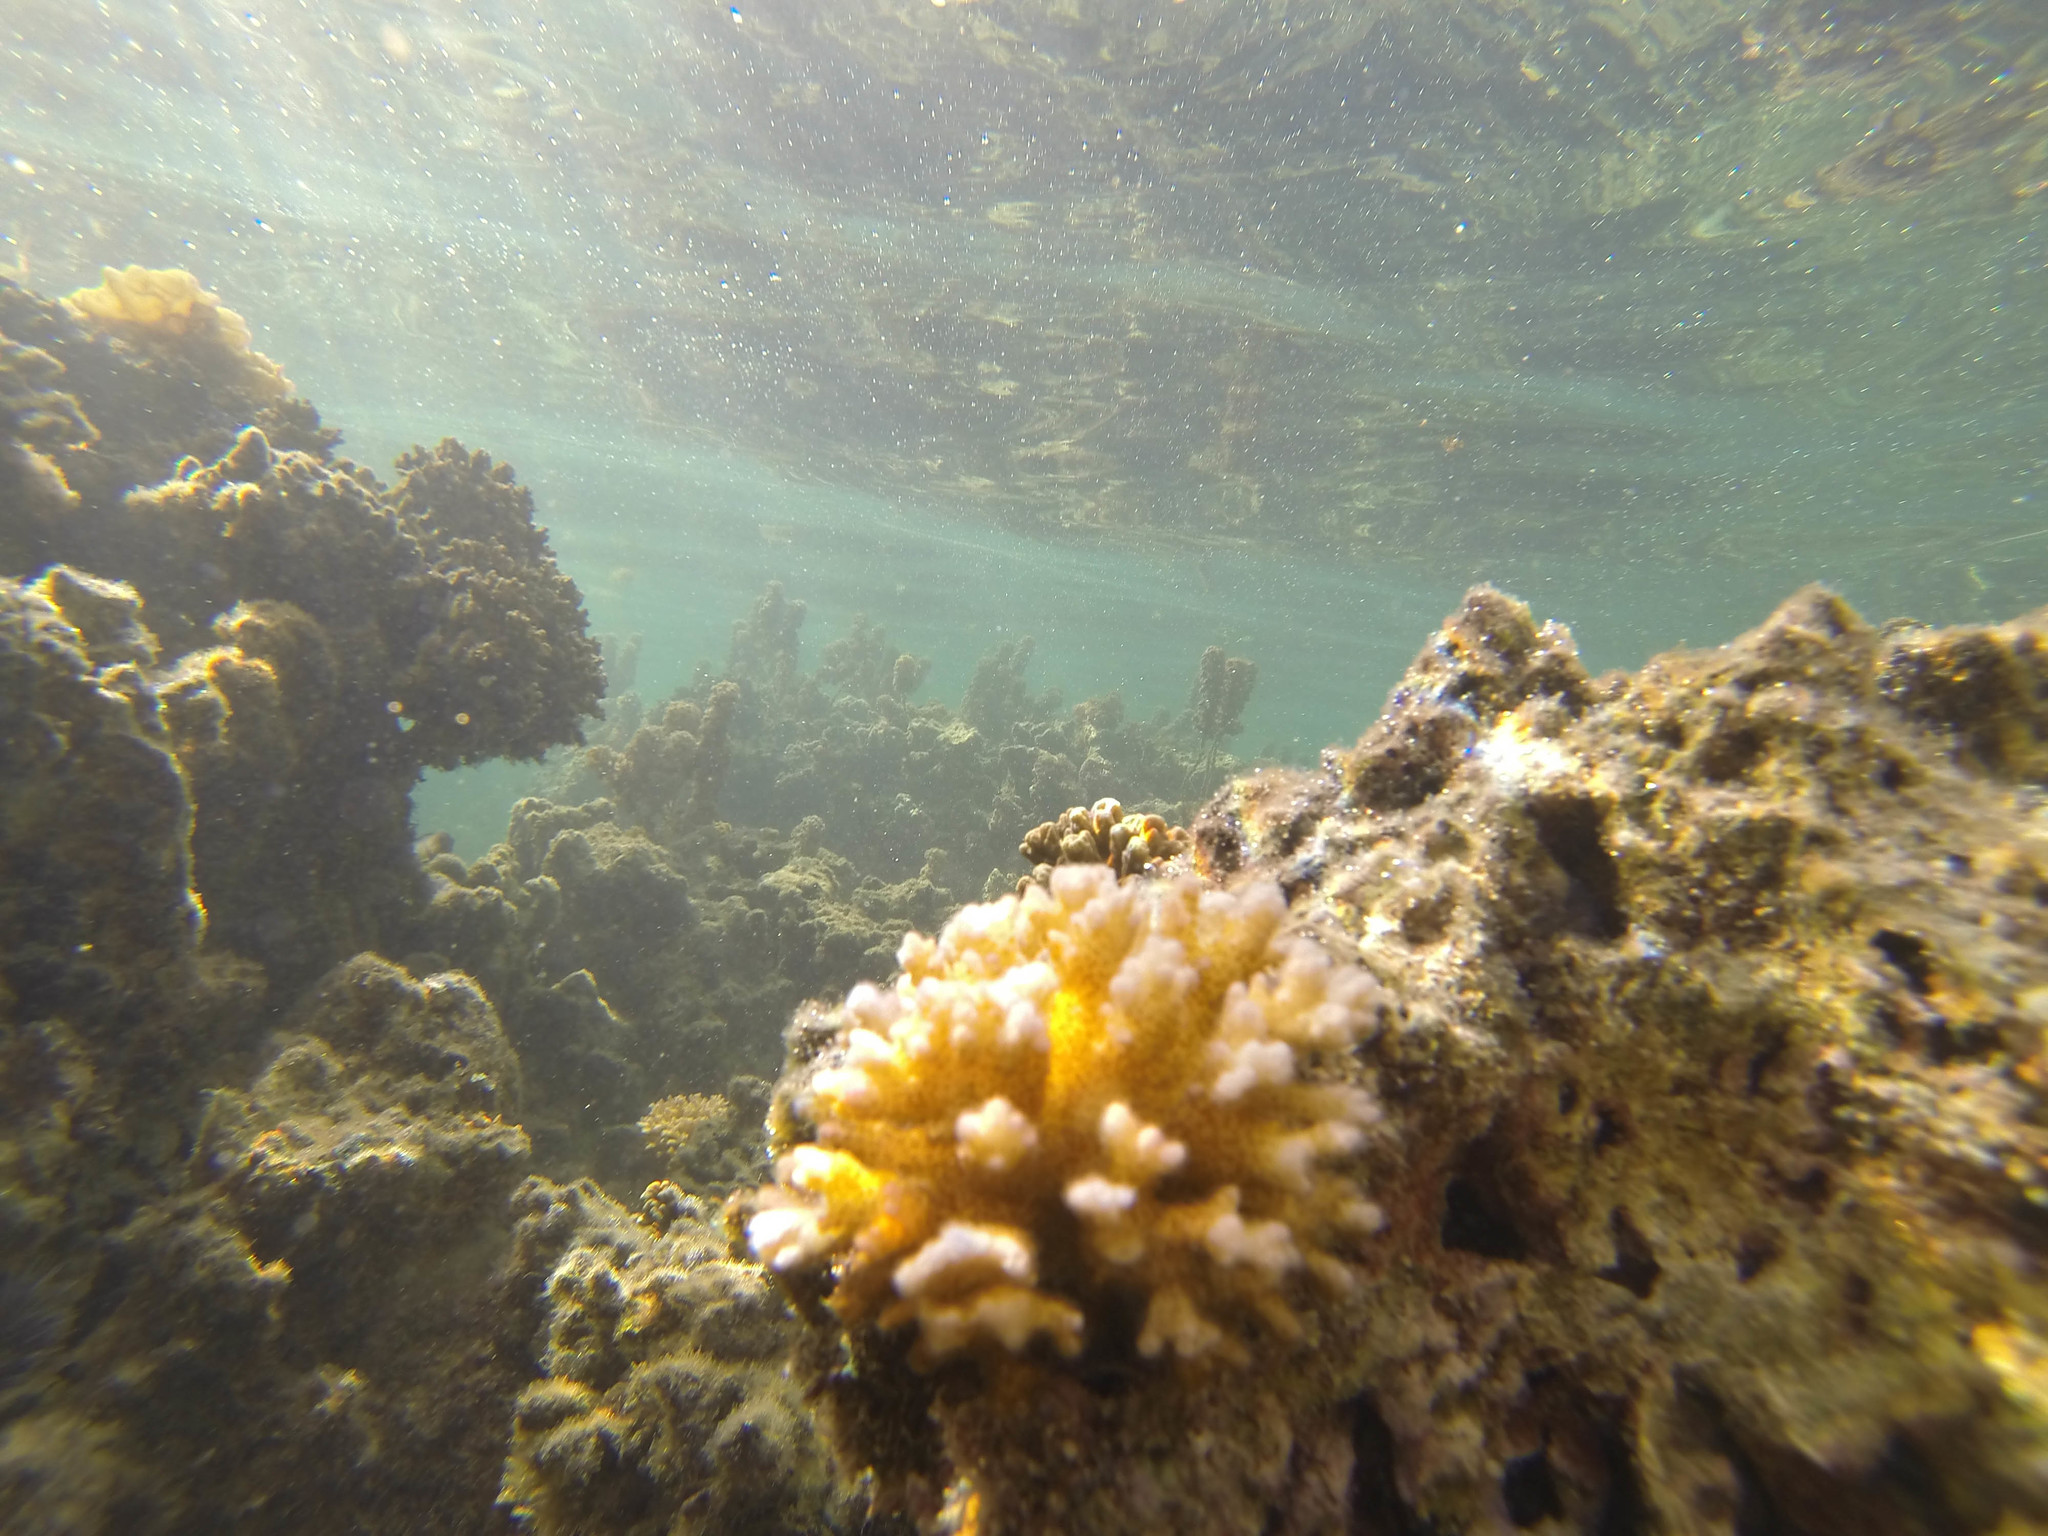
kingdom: Animalia
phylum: Cnidaria
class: Anthozoa
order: Scleractinia
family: Pocilloporidae
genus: Pocillopora
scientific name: Pocillopora damicornis
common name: Cauliflower coral
